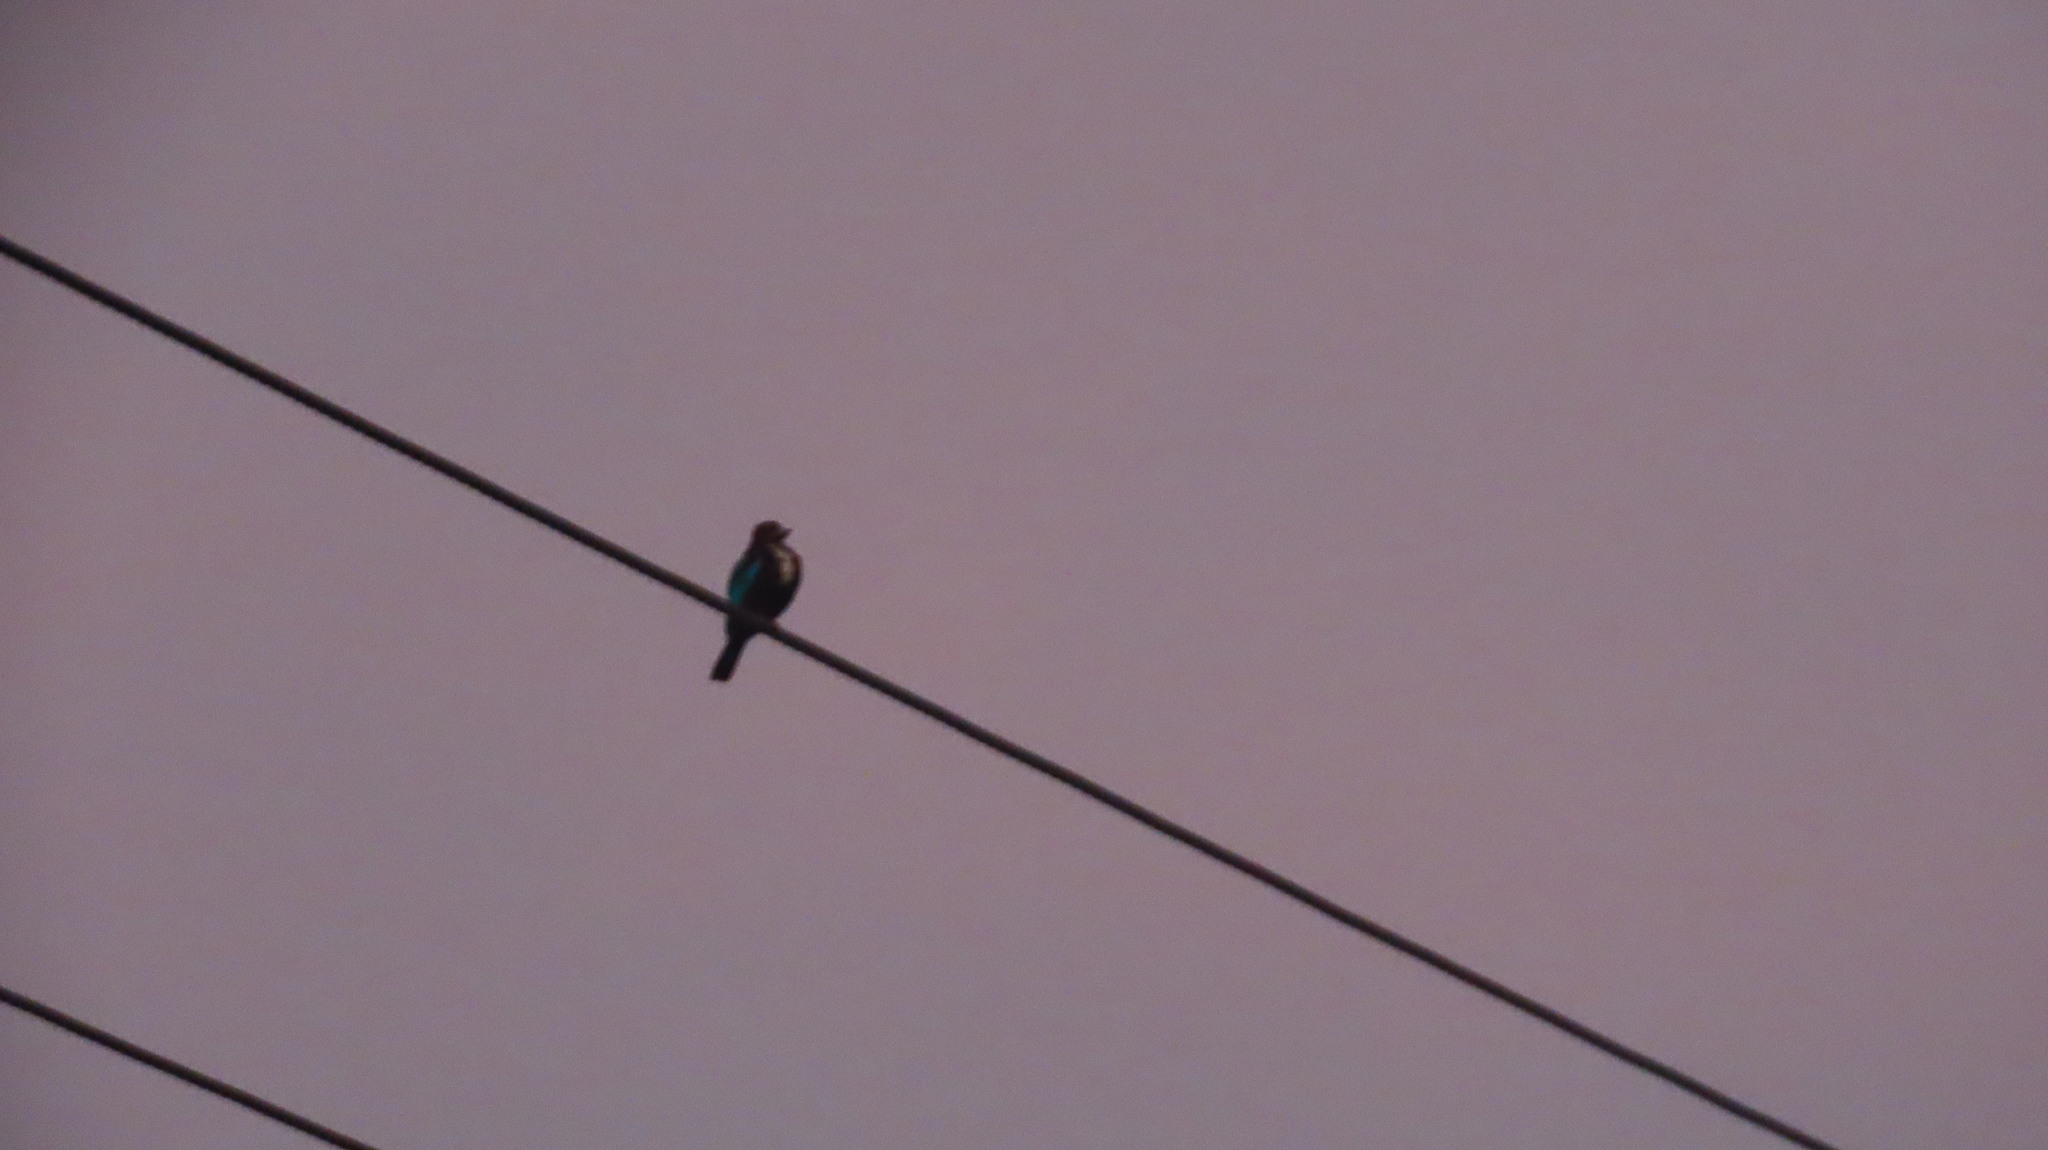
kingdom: Animalia
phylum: Chordata
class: Aves
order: Coraciiformes
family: Alcedinidae
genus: Halcyon
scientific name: Halcyon smyrnensis
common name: White-throated kingfisher
